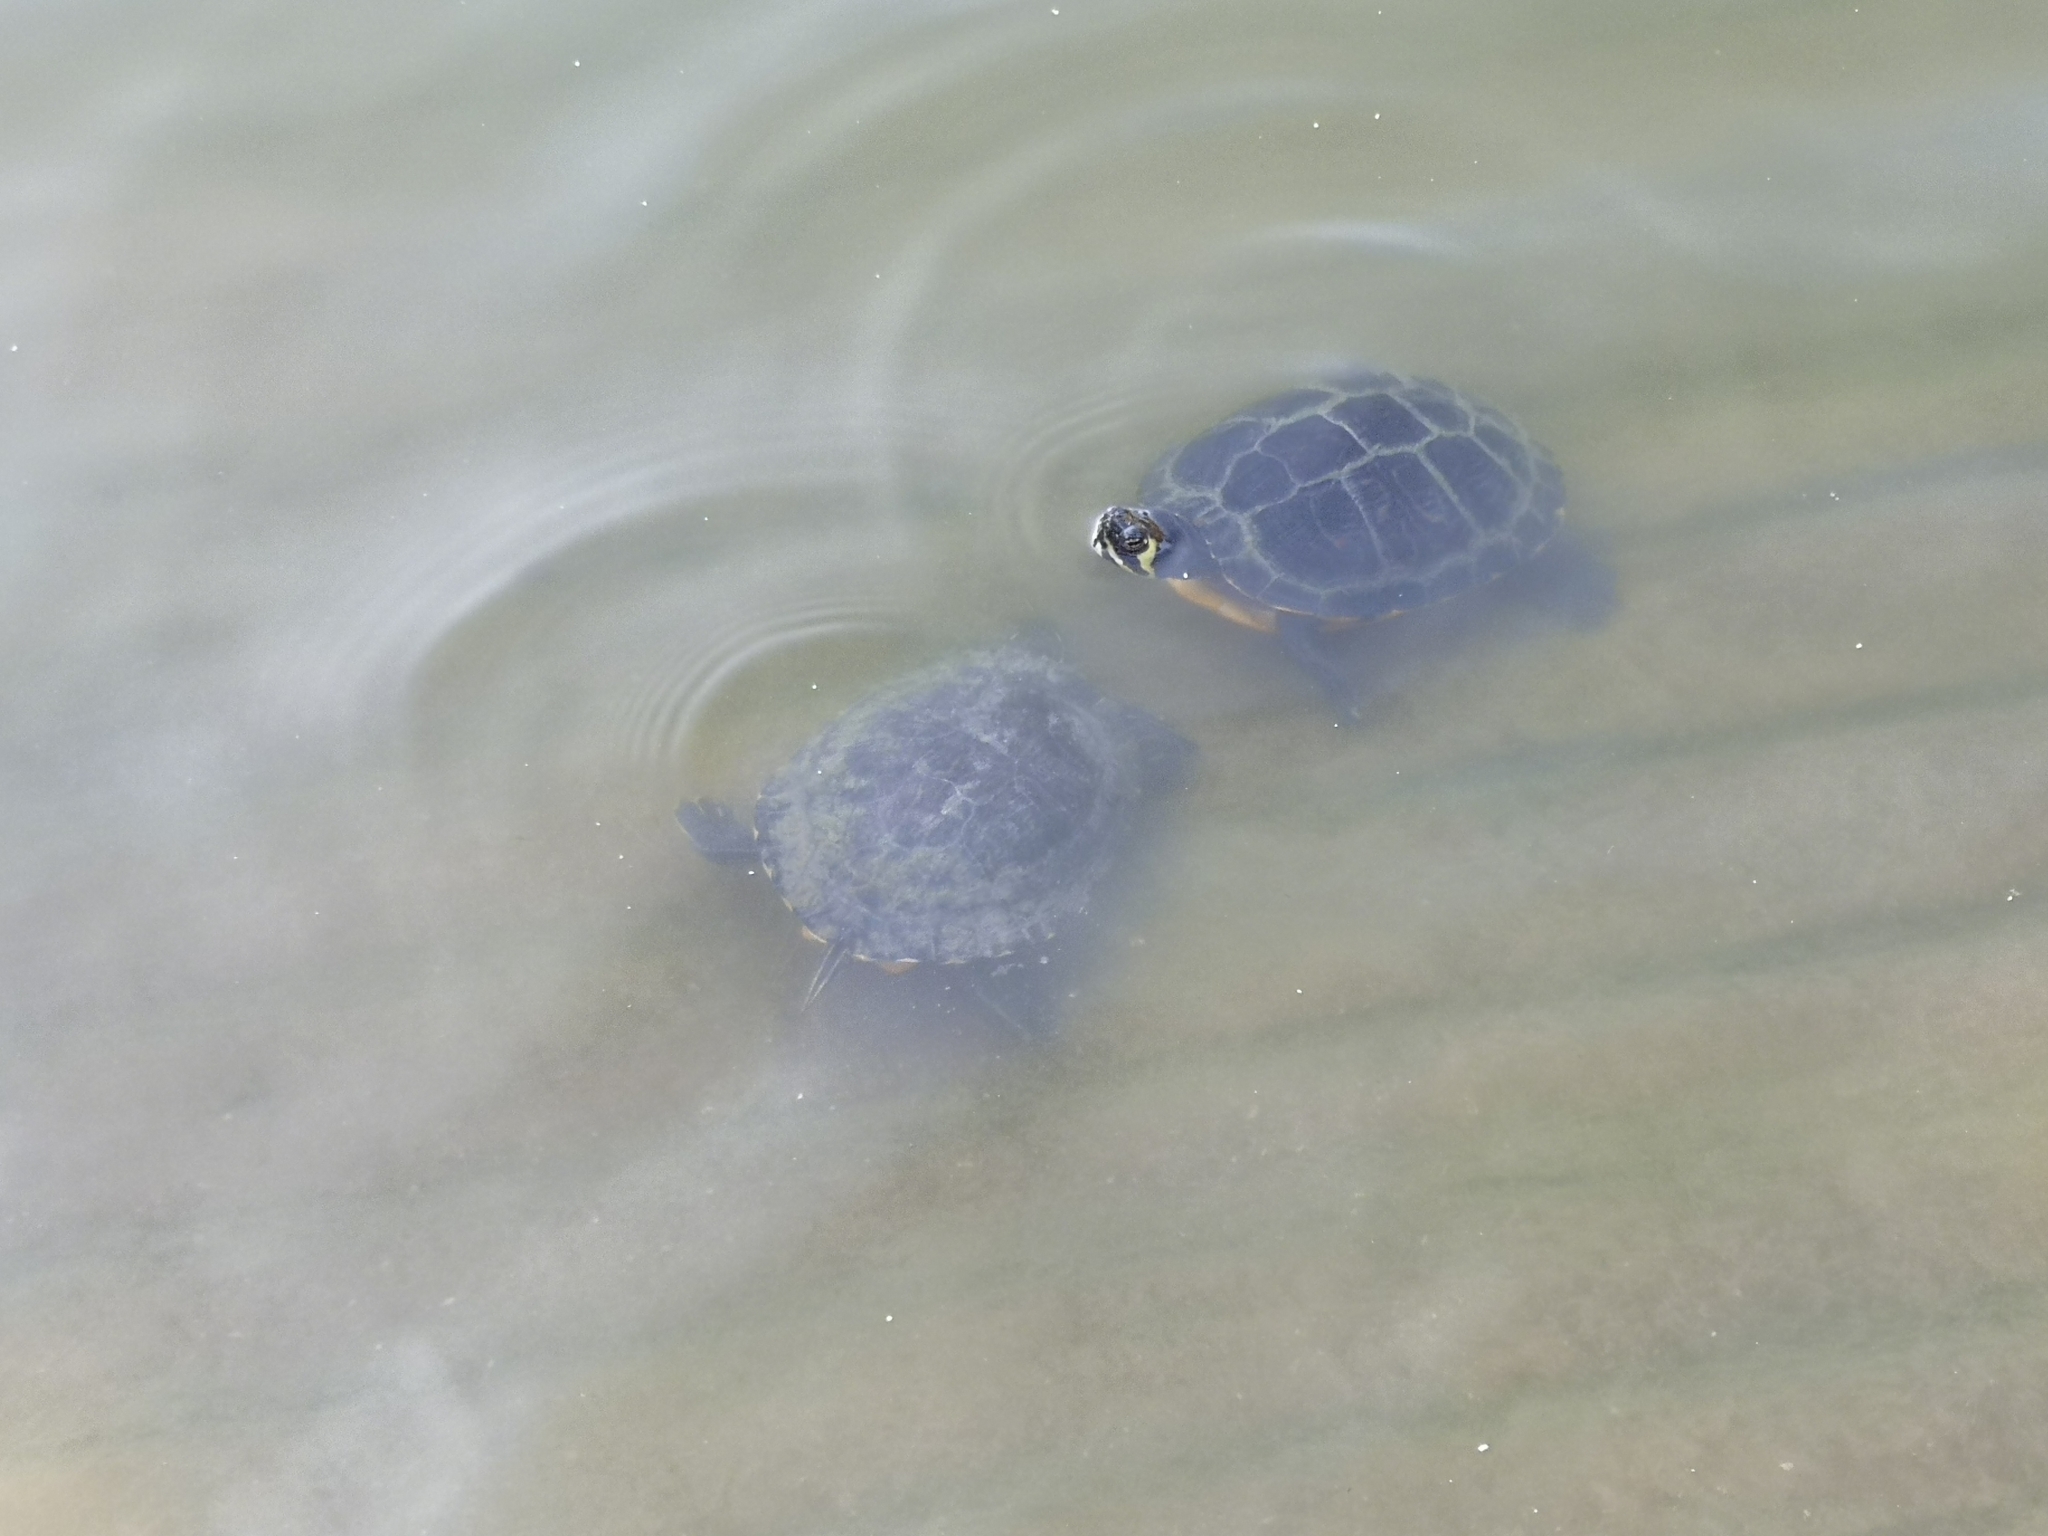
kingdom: Animalia
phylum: Chordata
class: Testudines
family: Emydidae
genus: Trachemys
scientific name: Trachemys scripta
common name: Slider
